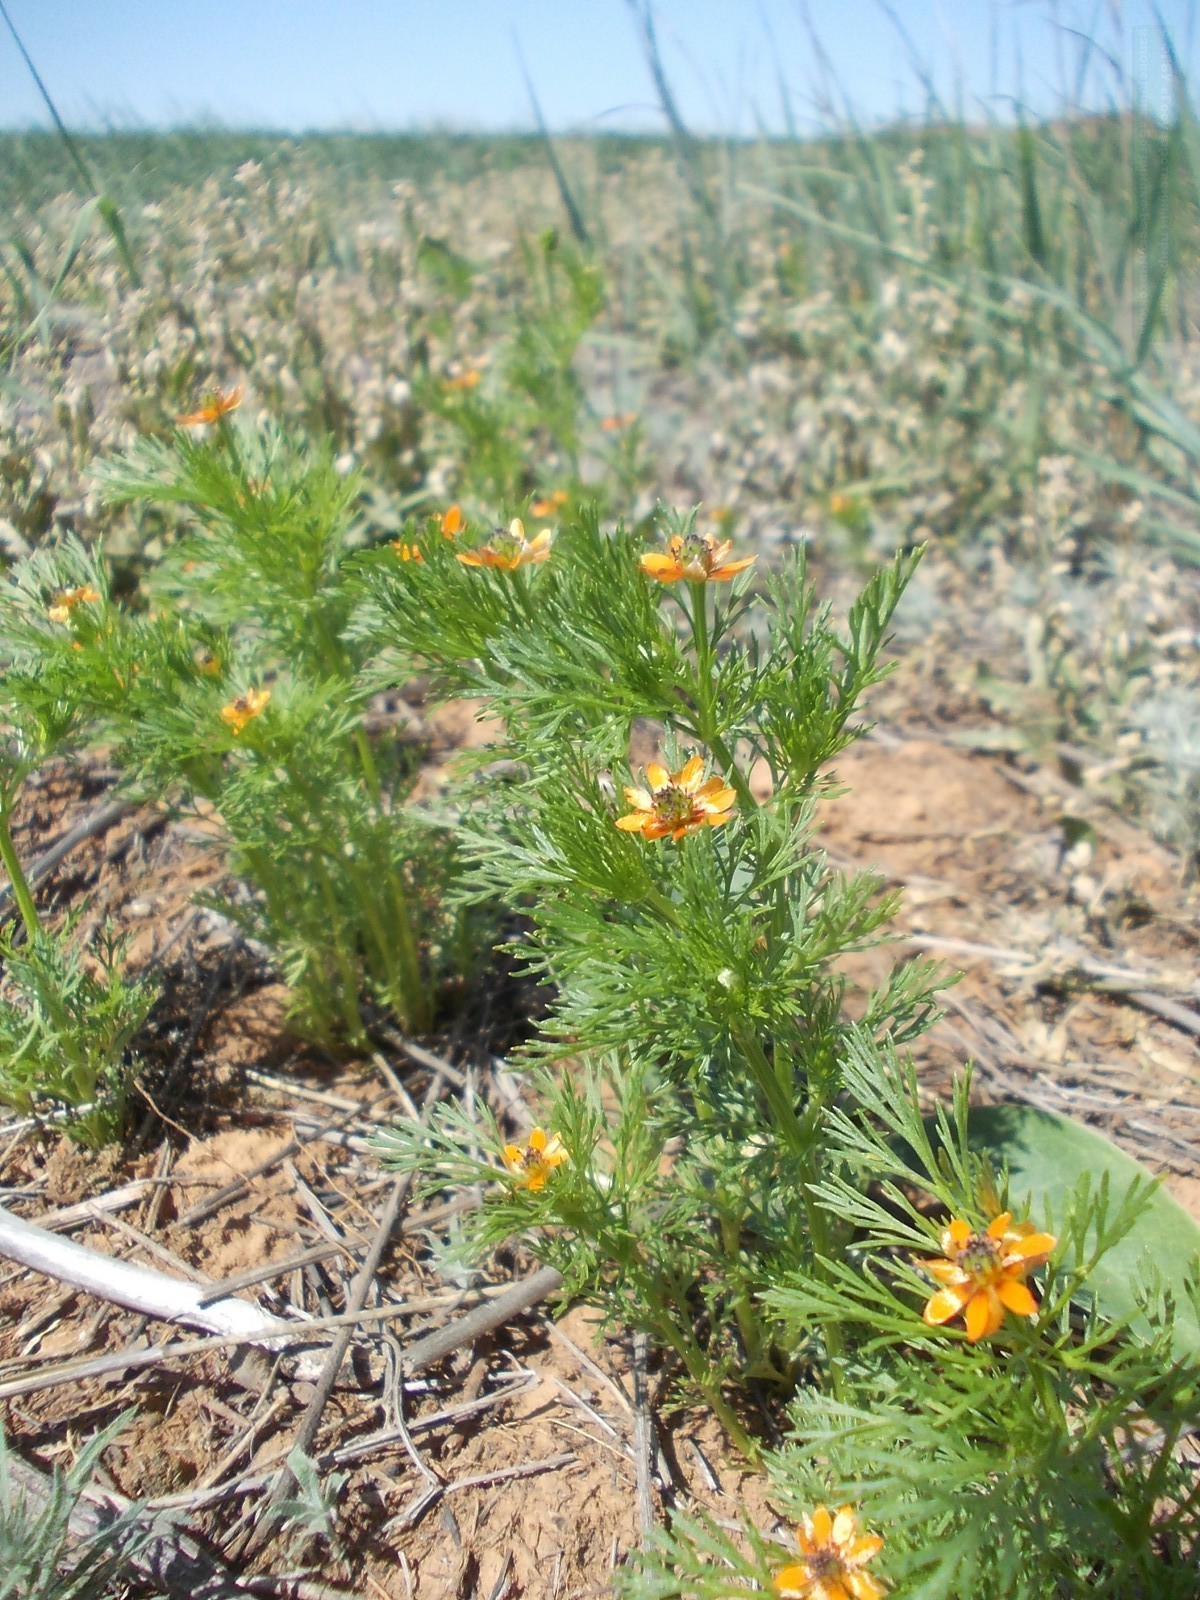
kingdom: Plantae
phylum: Tracheophyta
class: Magnoliopsida
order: Ranunculales
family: Ranunculaceae
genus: Adonis
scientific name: Adonis aestivalis
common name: Summer pheasant's-eye
